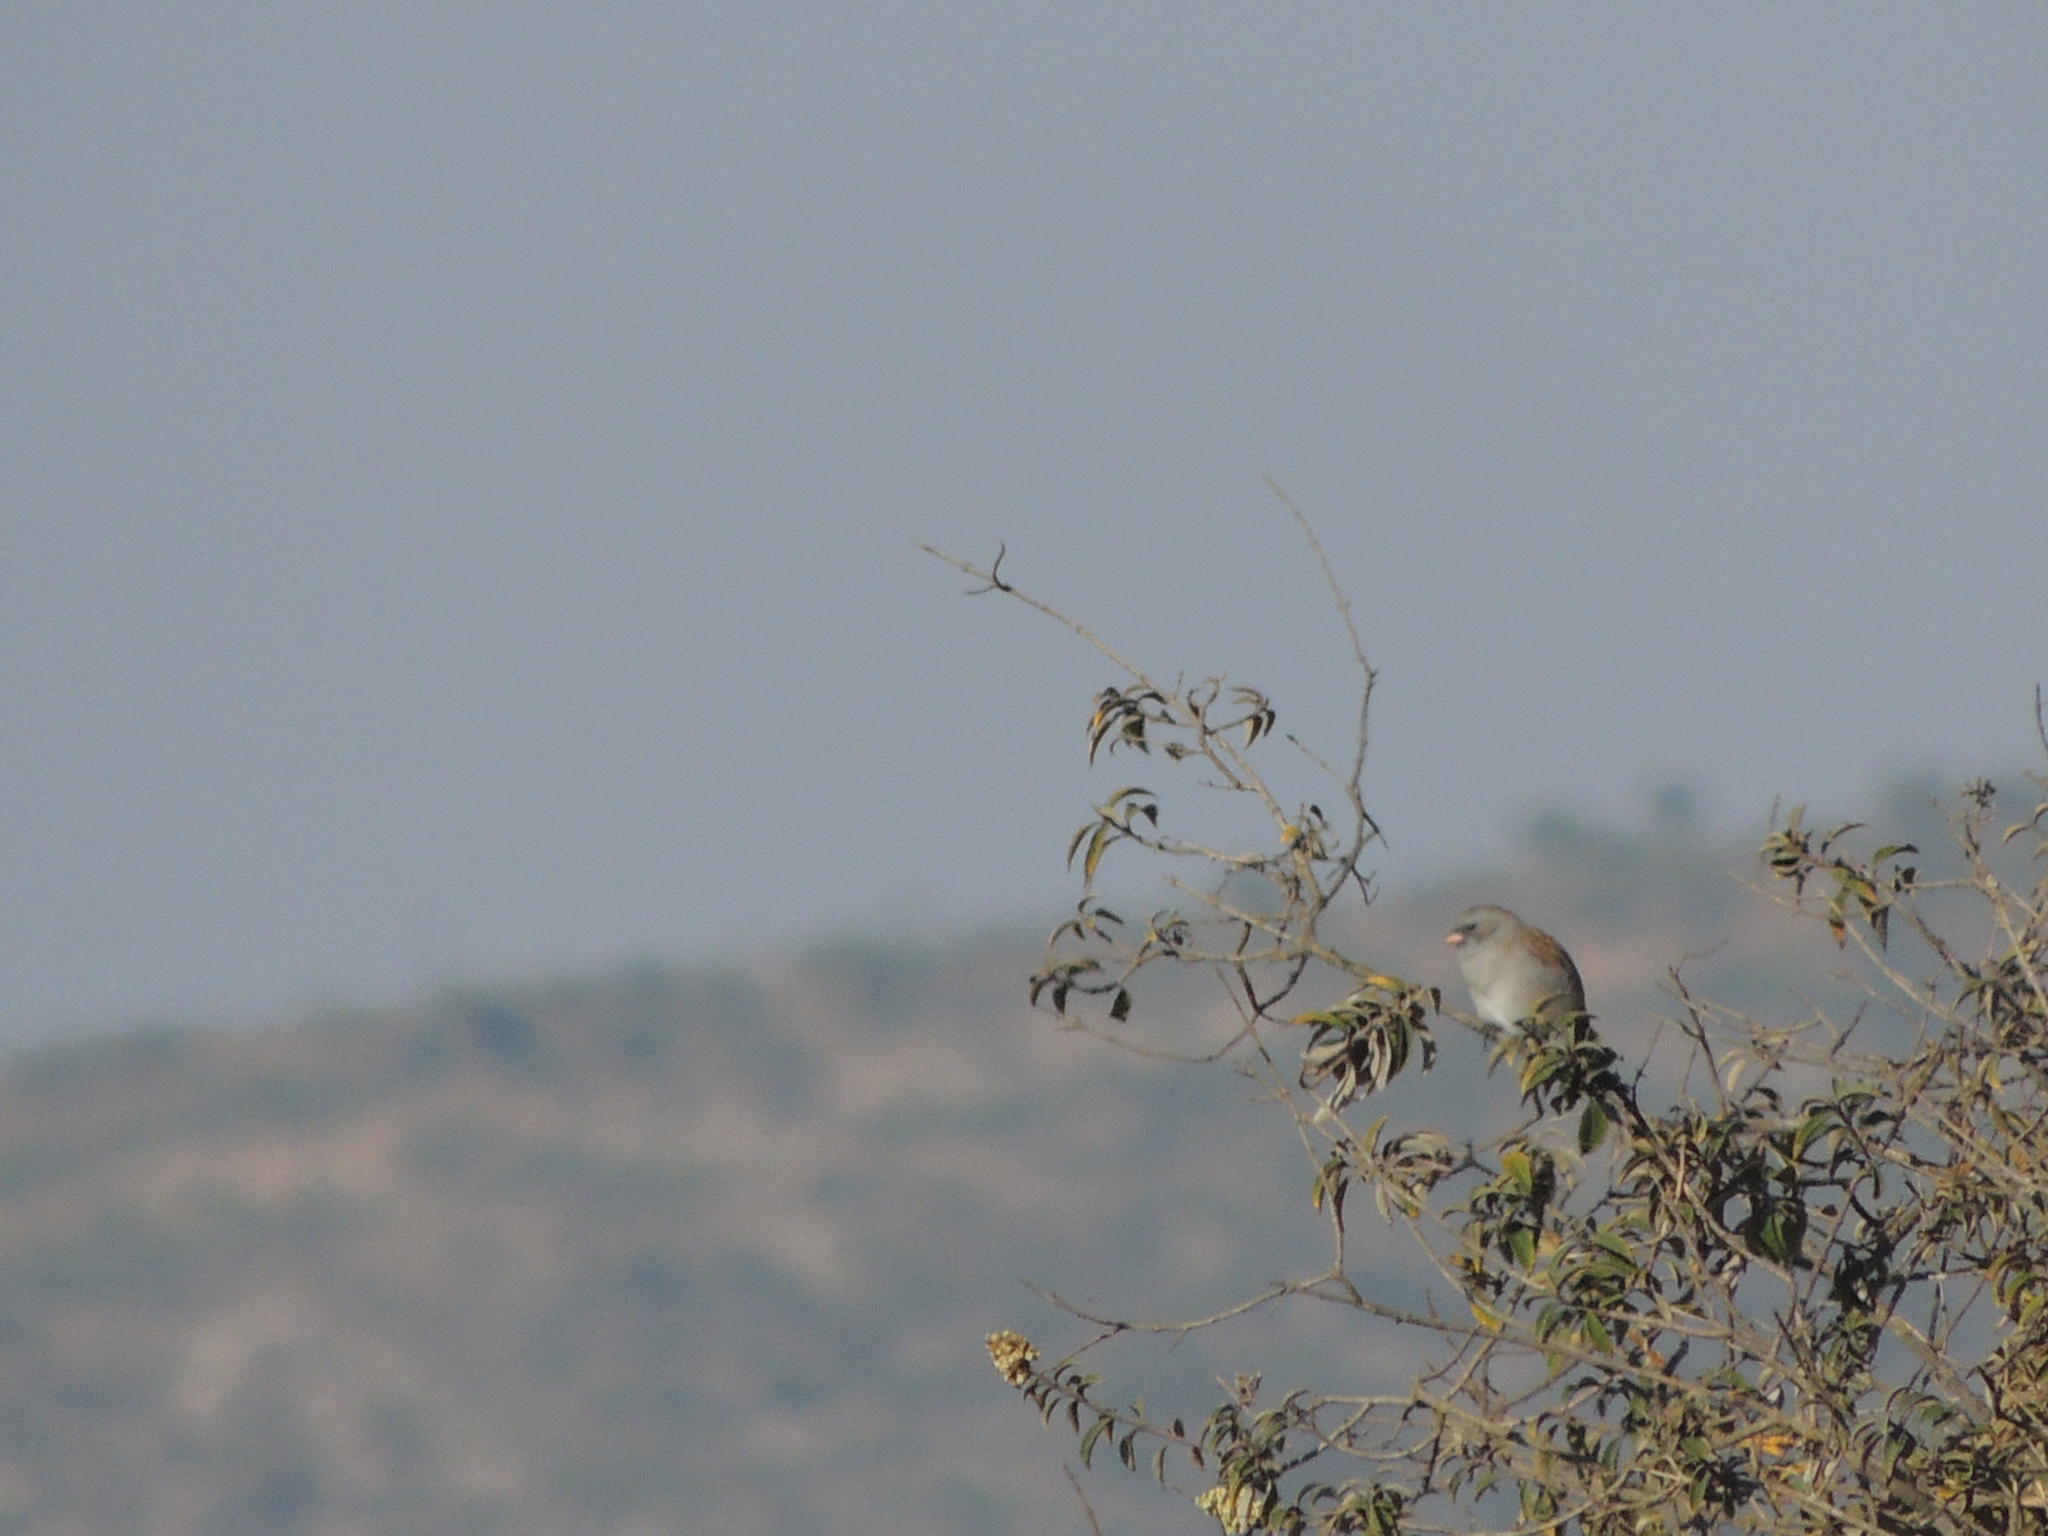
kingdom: Animalia
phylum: Chordata
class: Aves
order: Passeriformes
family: Passerellidae
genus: Spizella
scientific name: Spizella atrogularis
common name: Black-chinned sparrow
